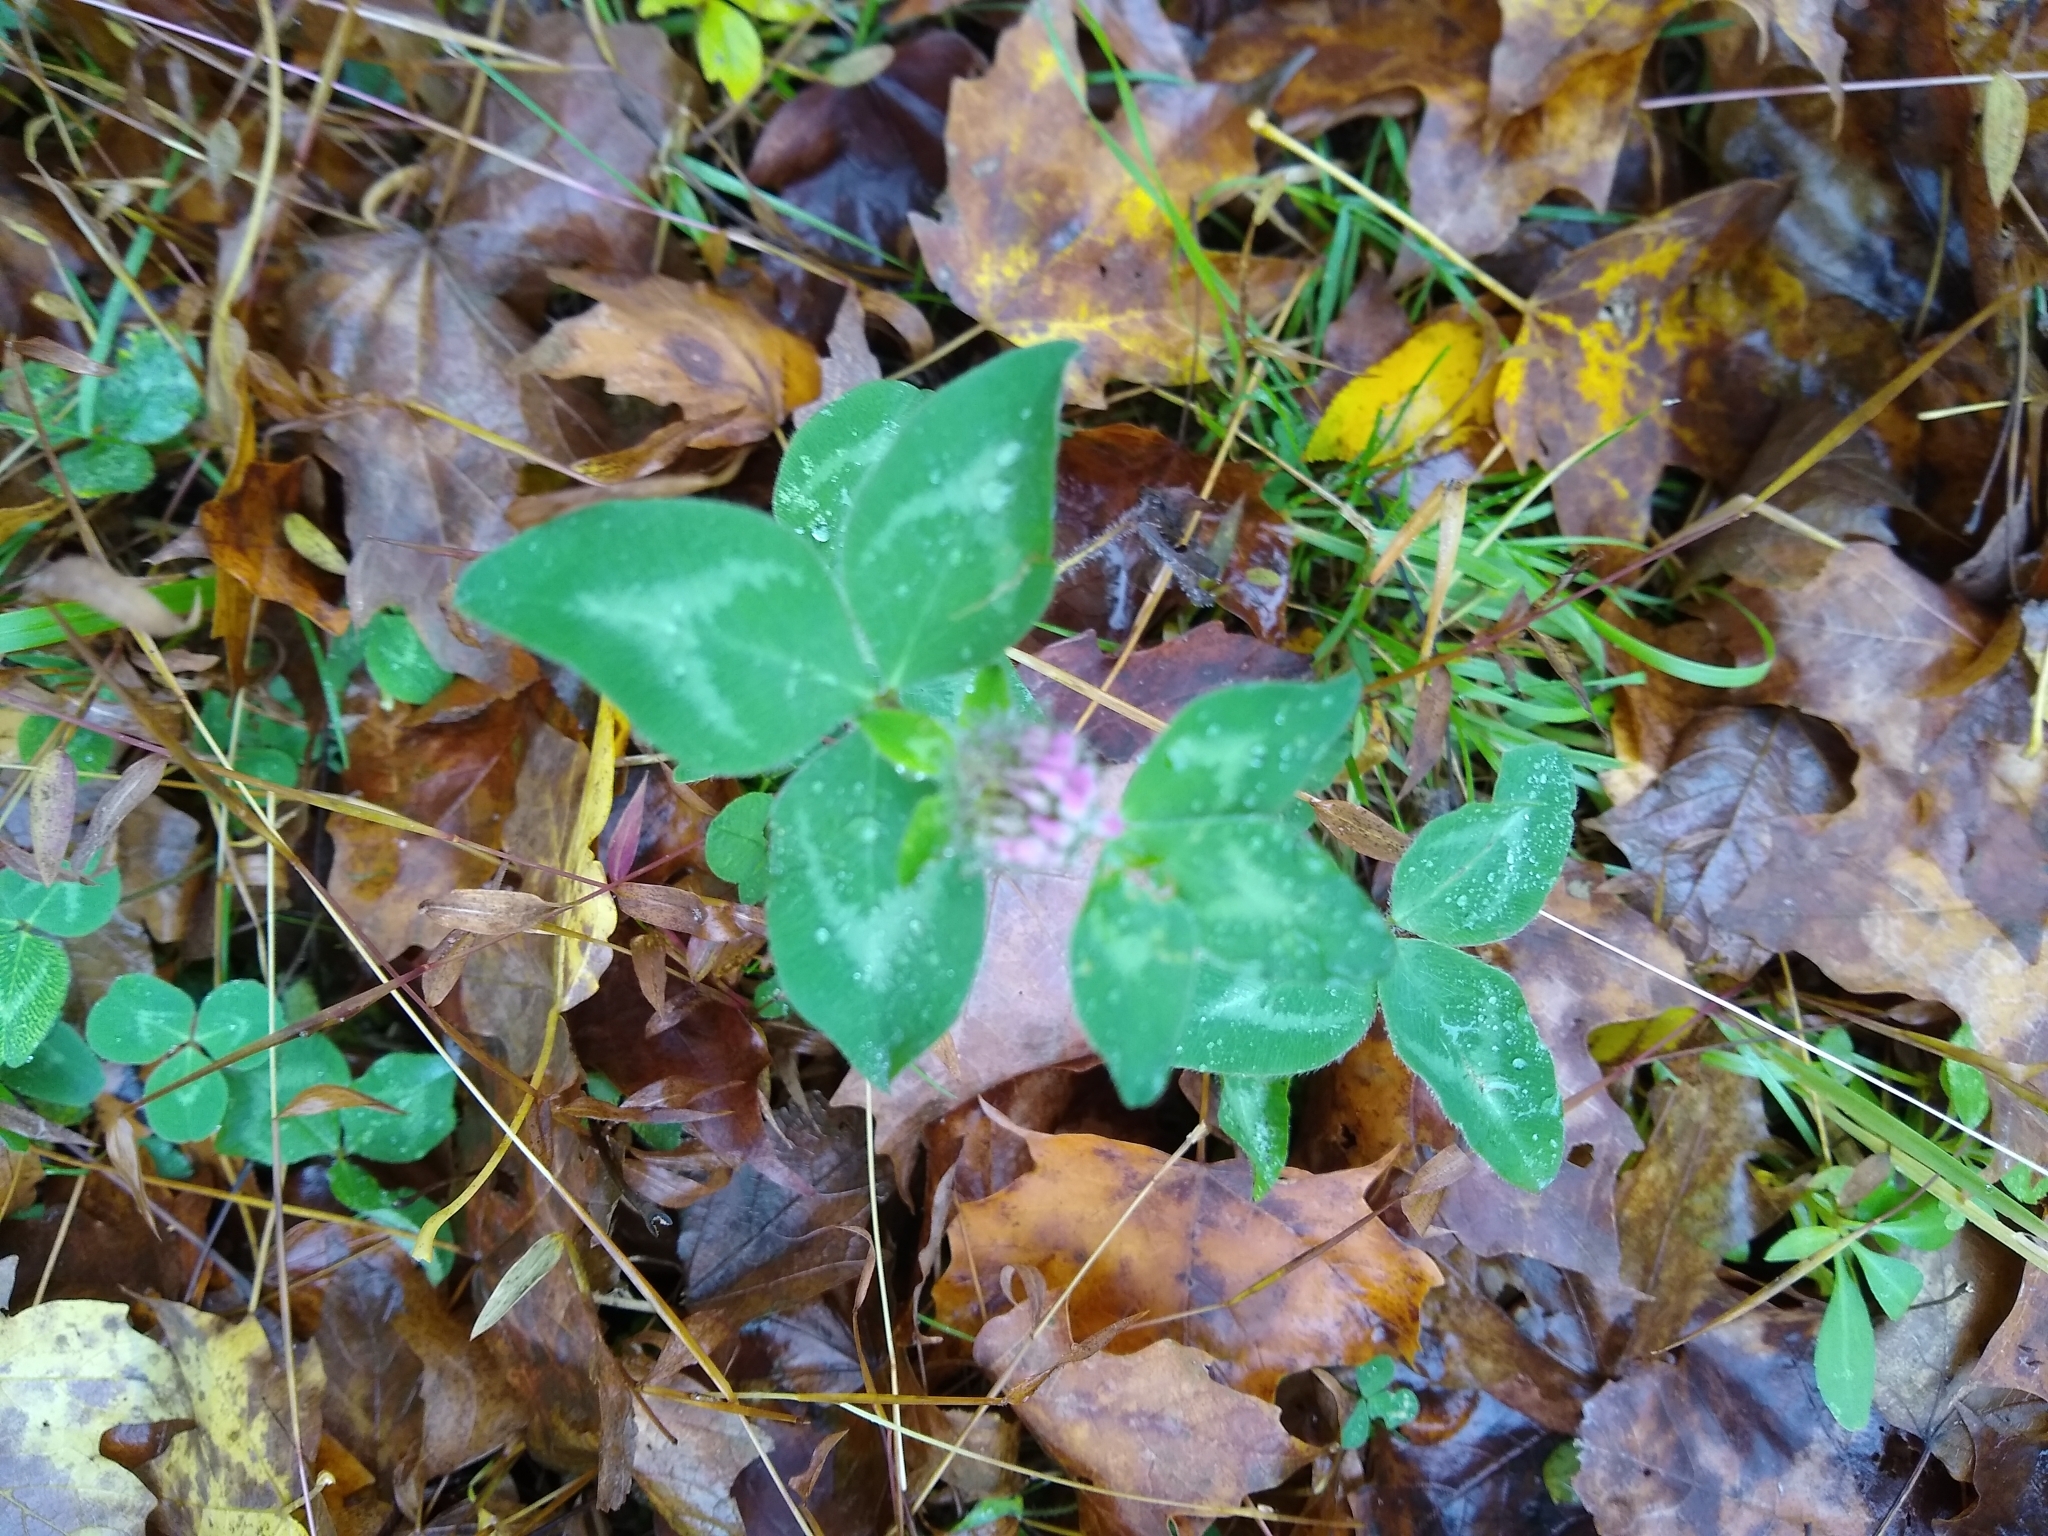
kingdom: Plantae
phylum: Tracheophyta
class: Magnoliopsida
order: Fabales
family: Fabaceae
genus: Trifolium
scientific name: Trifolium pratense
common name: Red clover
